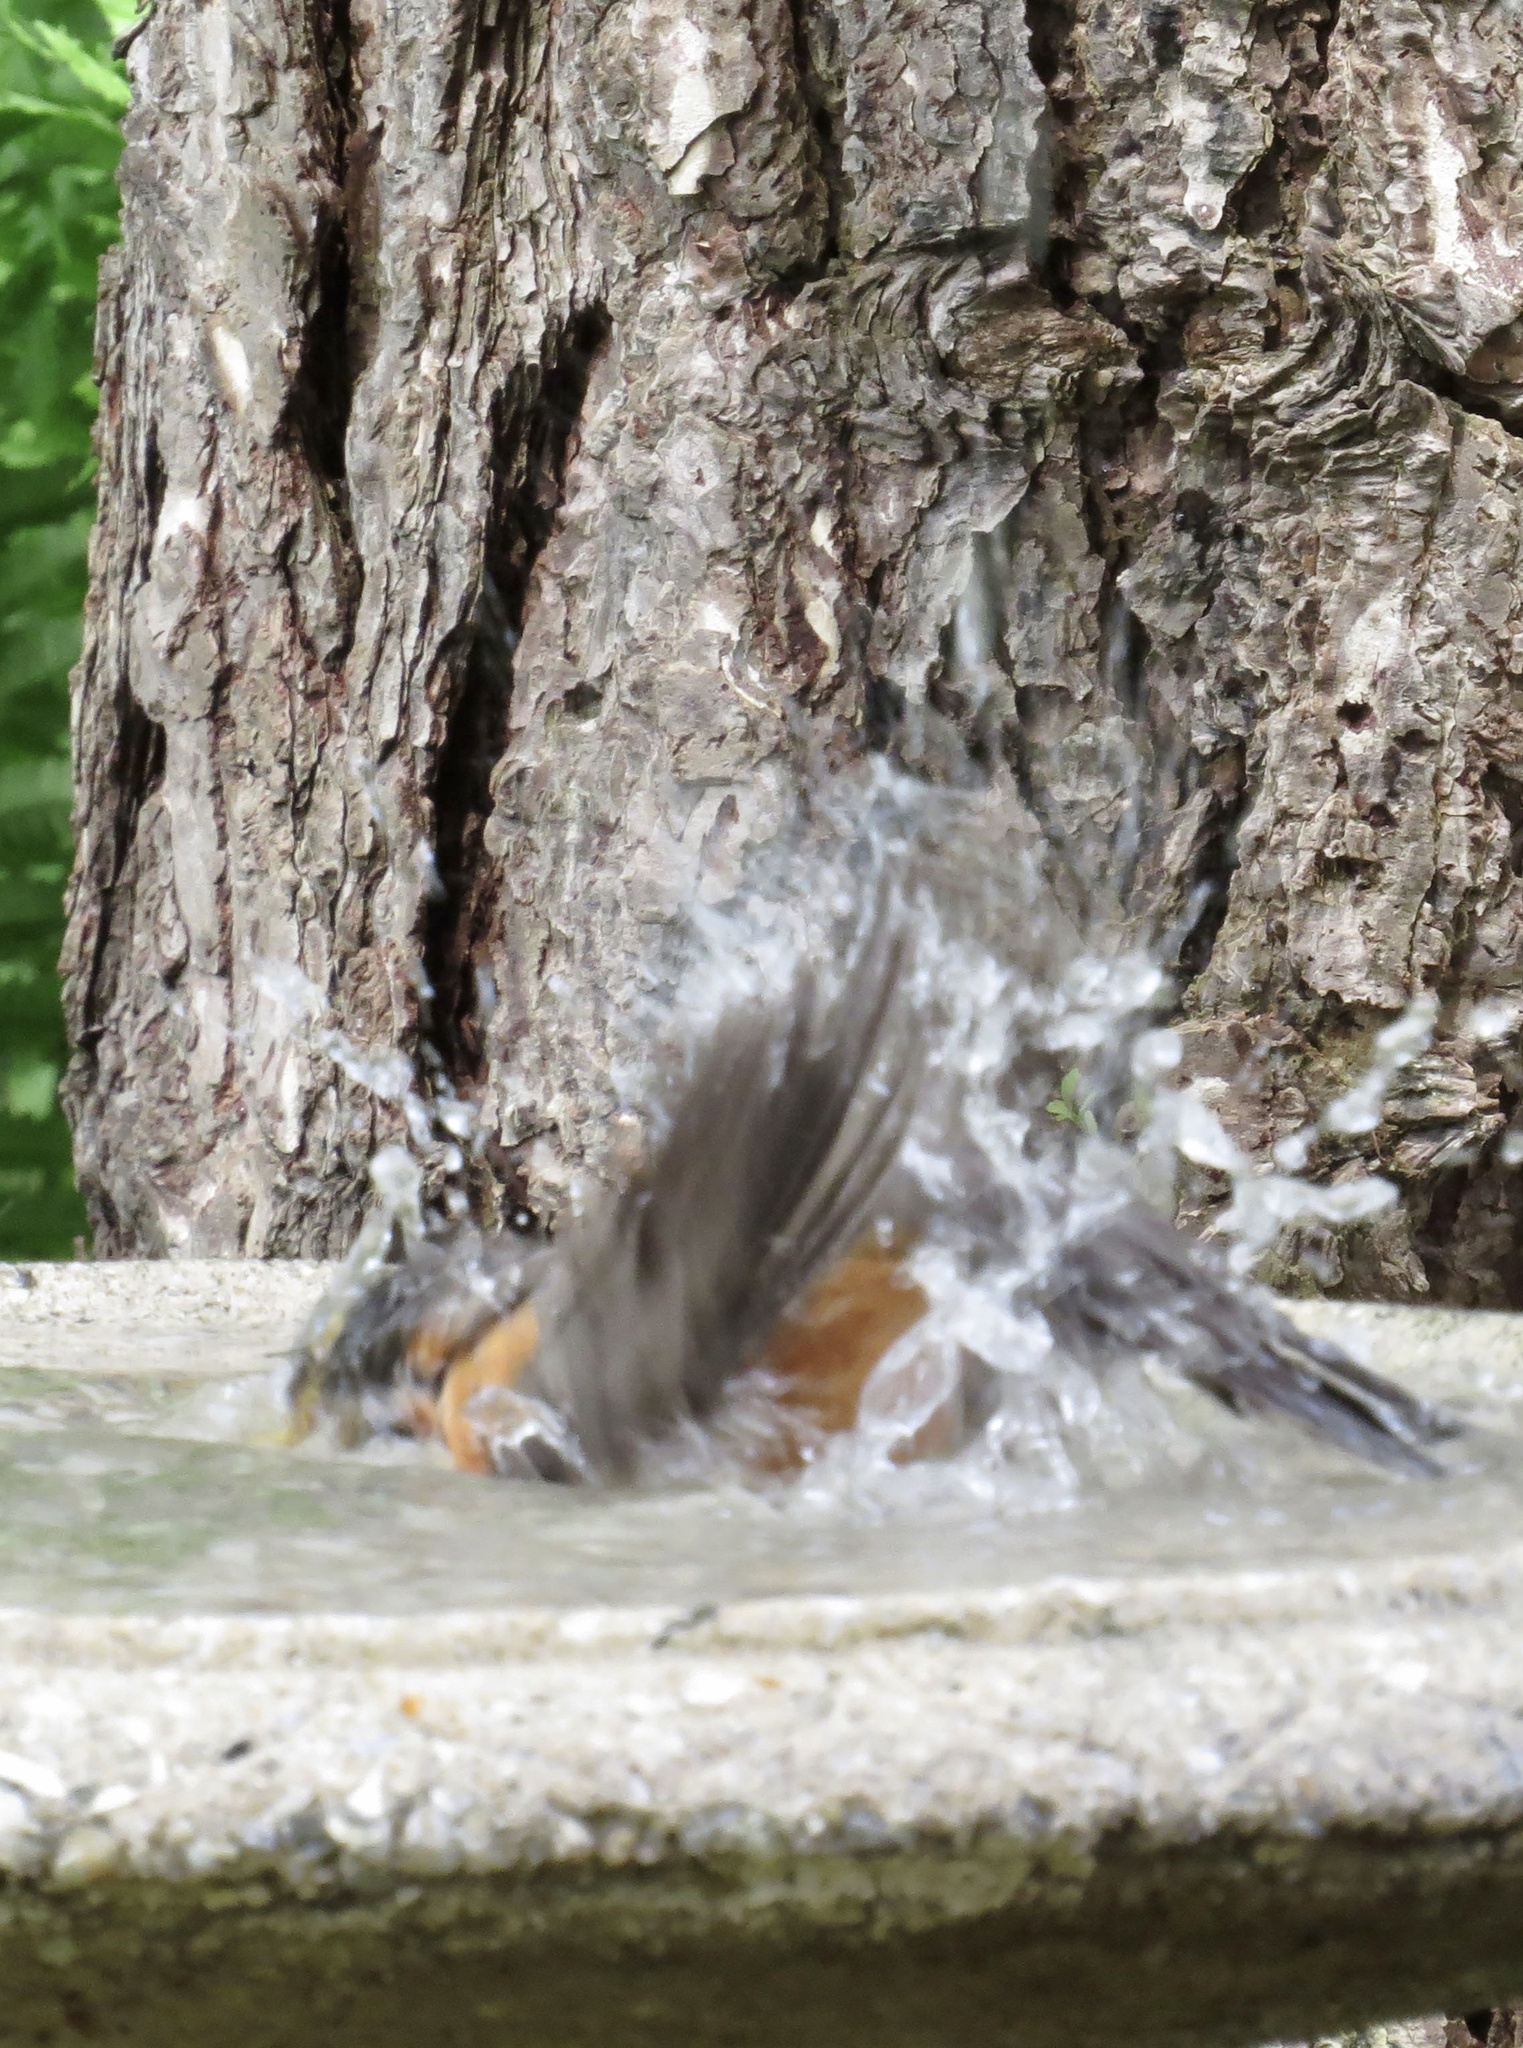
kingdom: Animalia
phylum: Chordata
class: Aves
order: Passeriformes
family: Turdidae
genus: Turdus
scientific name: Turdus migratorius
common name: American robin
